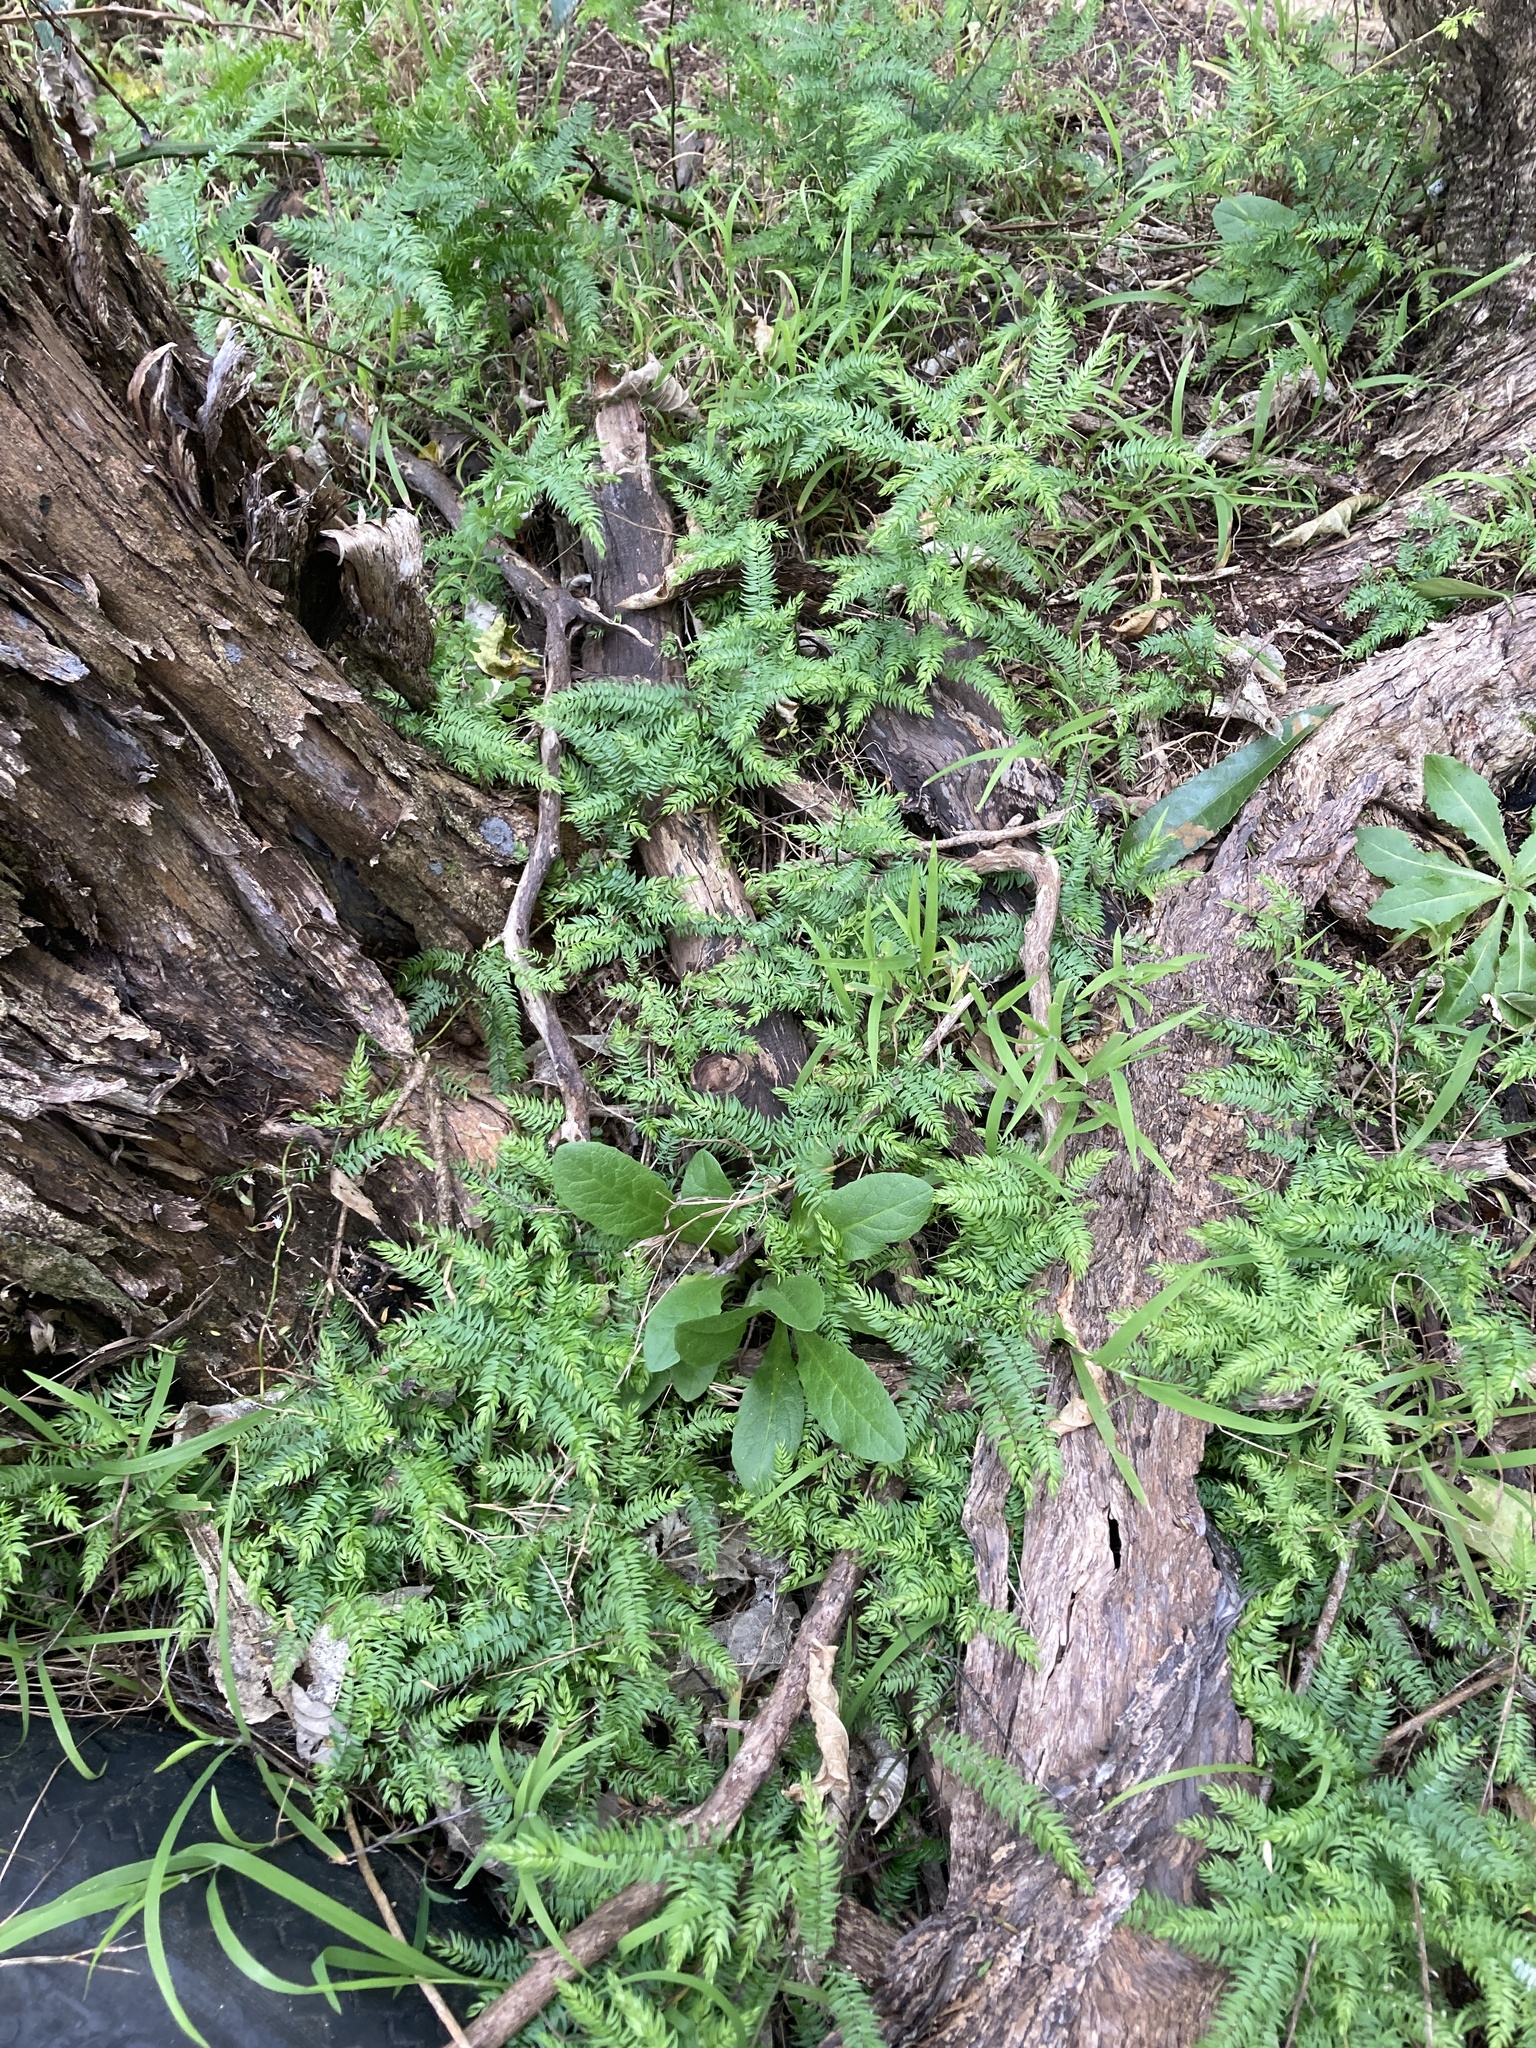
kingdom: Plantae
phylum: Tracheophyta
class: Liliopsida
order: Asparagales
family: Asparagaceae
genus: Asparagus
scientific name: Asparagus scandens
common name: Asparagus-fern
